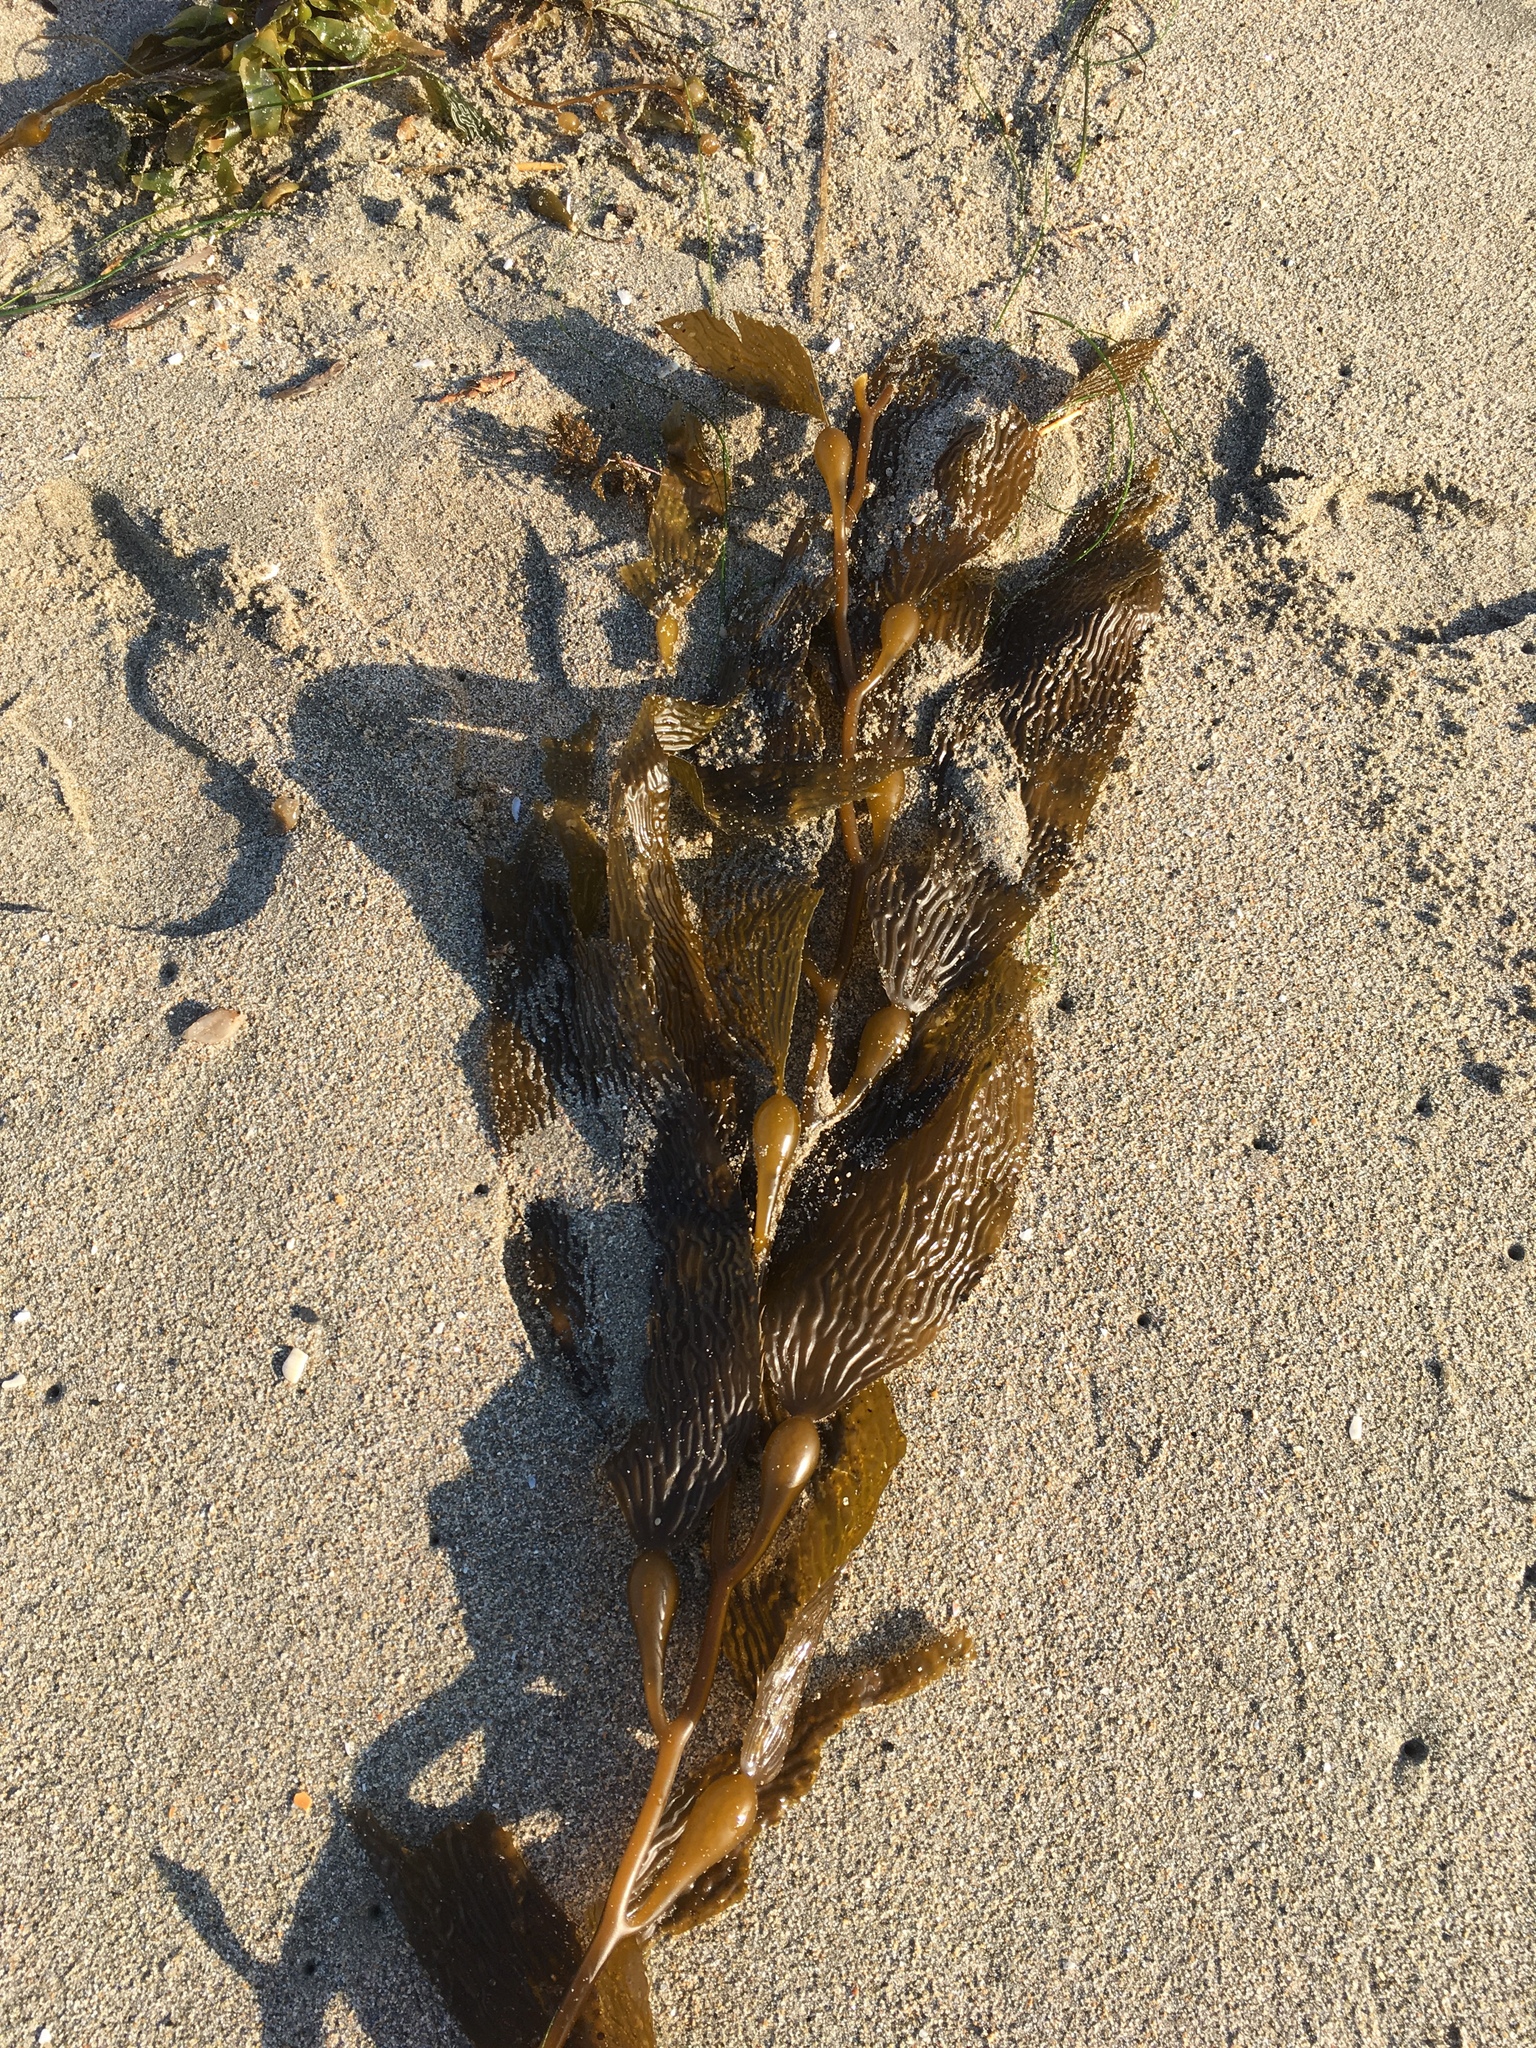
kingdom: Chromista
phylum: Ochrophyta
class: Phaeophyceae
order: Laminariales
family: Laminariaceae
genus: Macrocystis
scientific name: Macrocystis pyrifera
